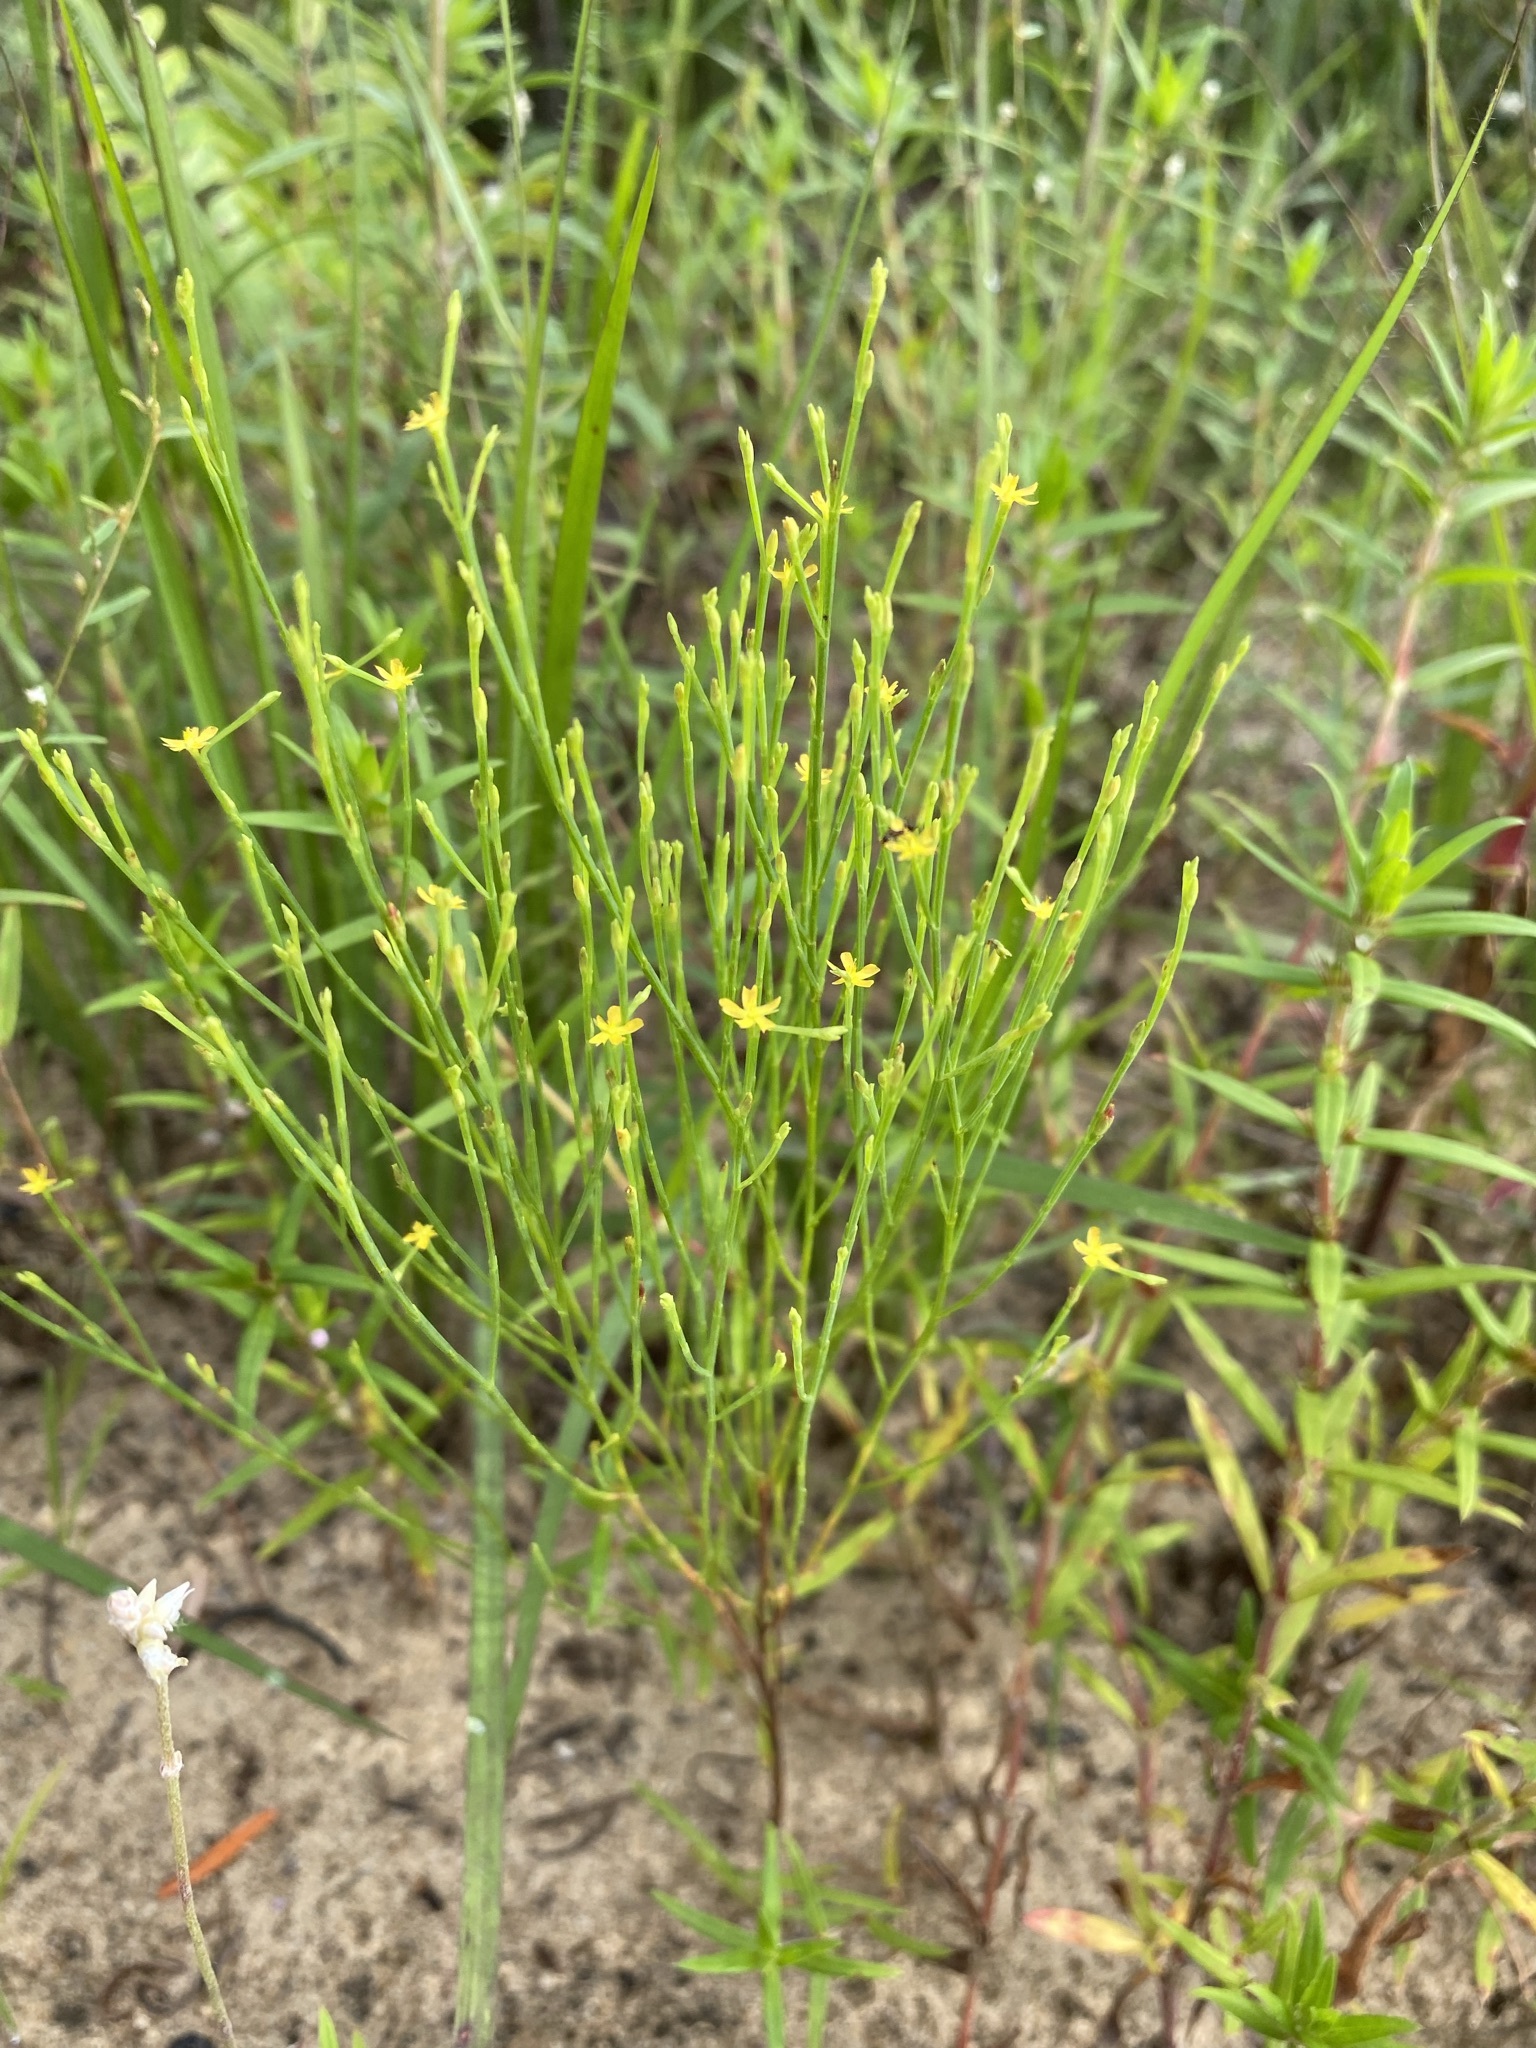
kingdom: Plantae
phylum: Tracheophyta
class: Magnoliopsida
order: Malpighiales
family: Hypericaceae
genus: Hypericum
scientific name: Hypericum gentianoides
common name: Gentian-leaved st. john's-wort
